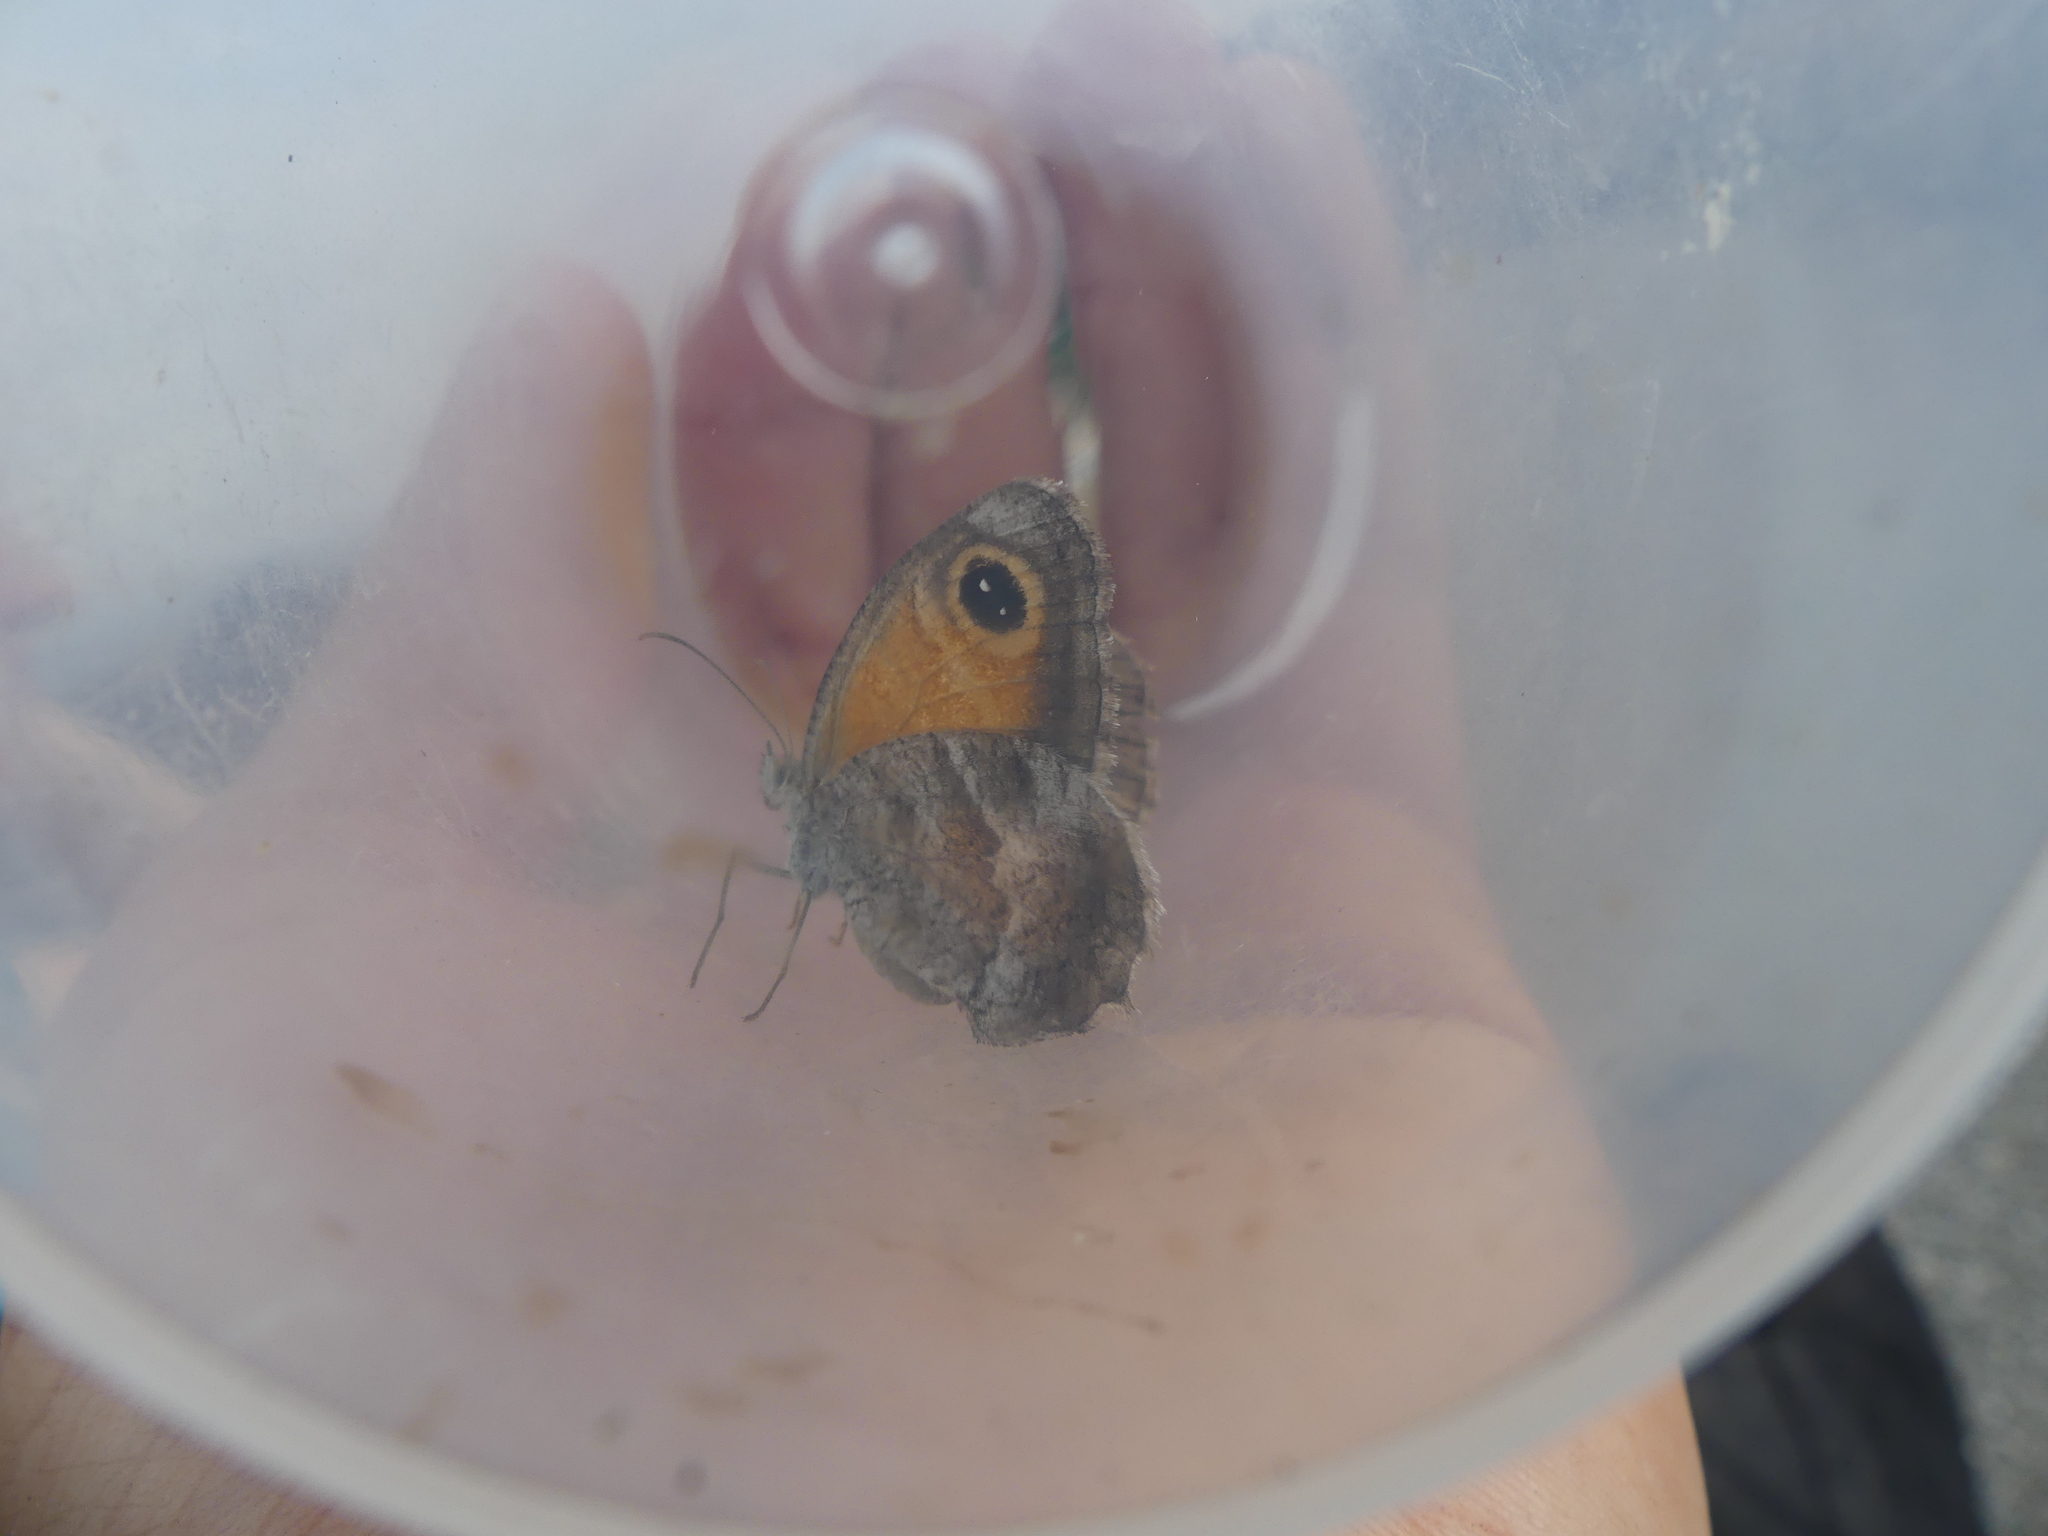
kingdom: Animalia
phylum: Arthropoda
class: Insecta
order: Lepidoptera
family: Nymphalidae
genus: Pyronia
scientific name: Pyronia cecilia
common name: Southern gatekeeper
